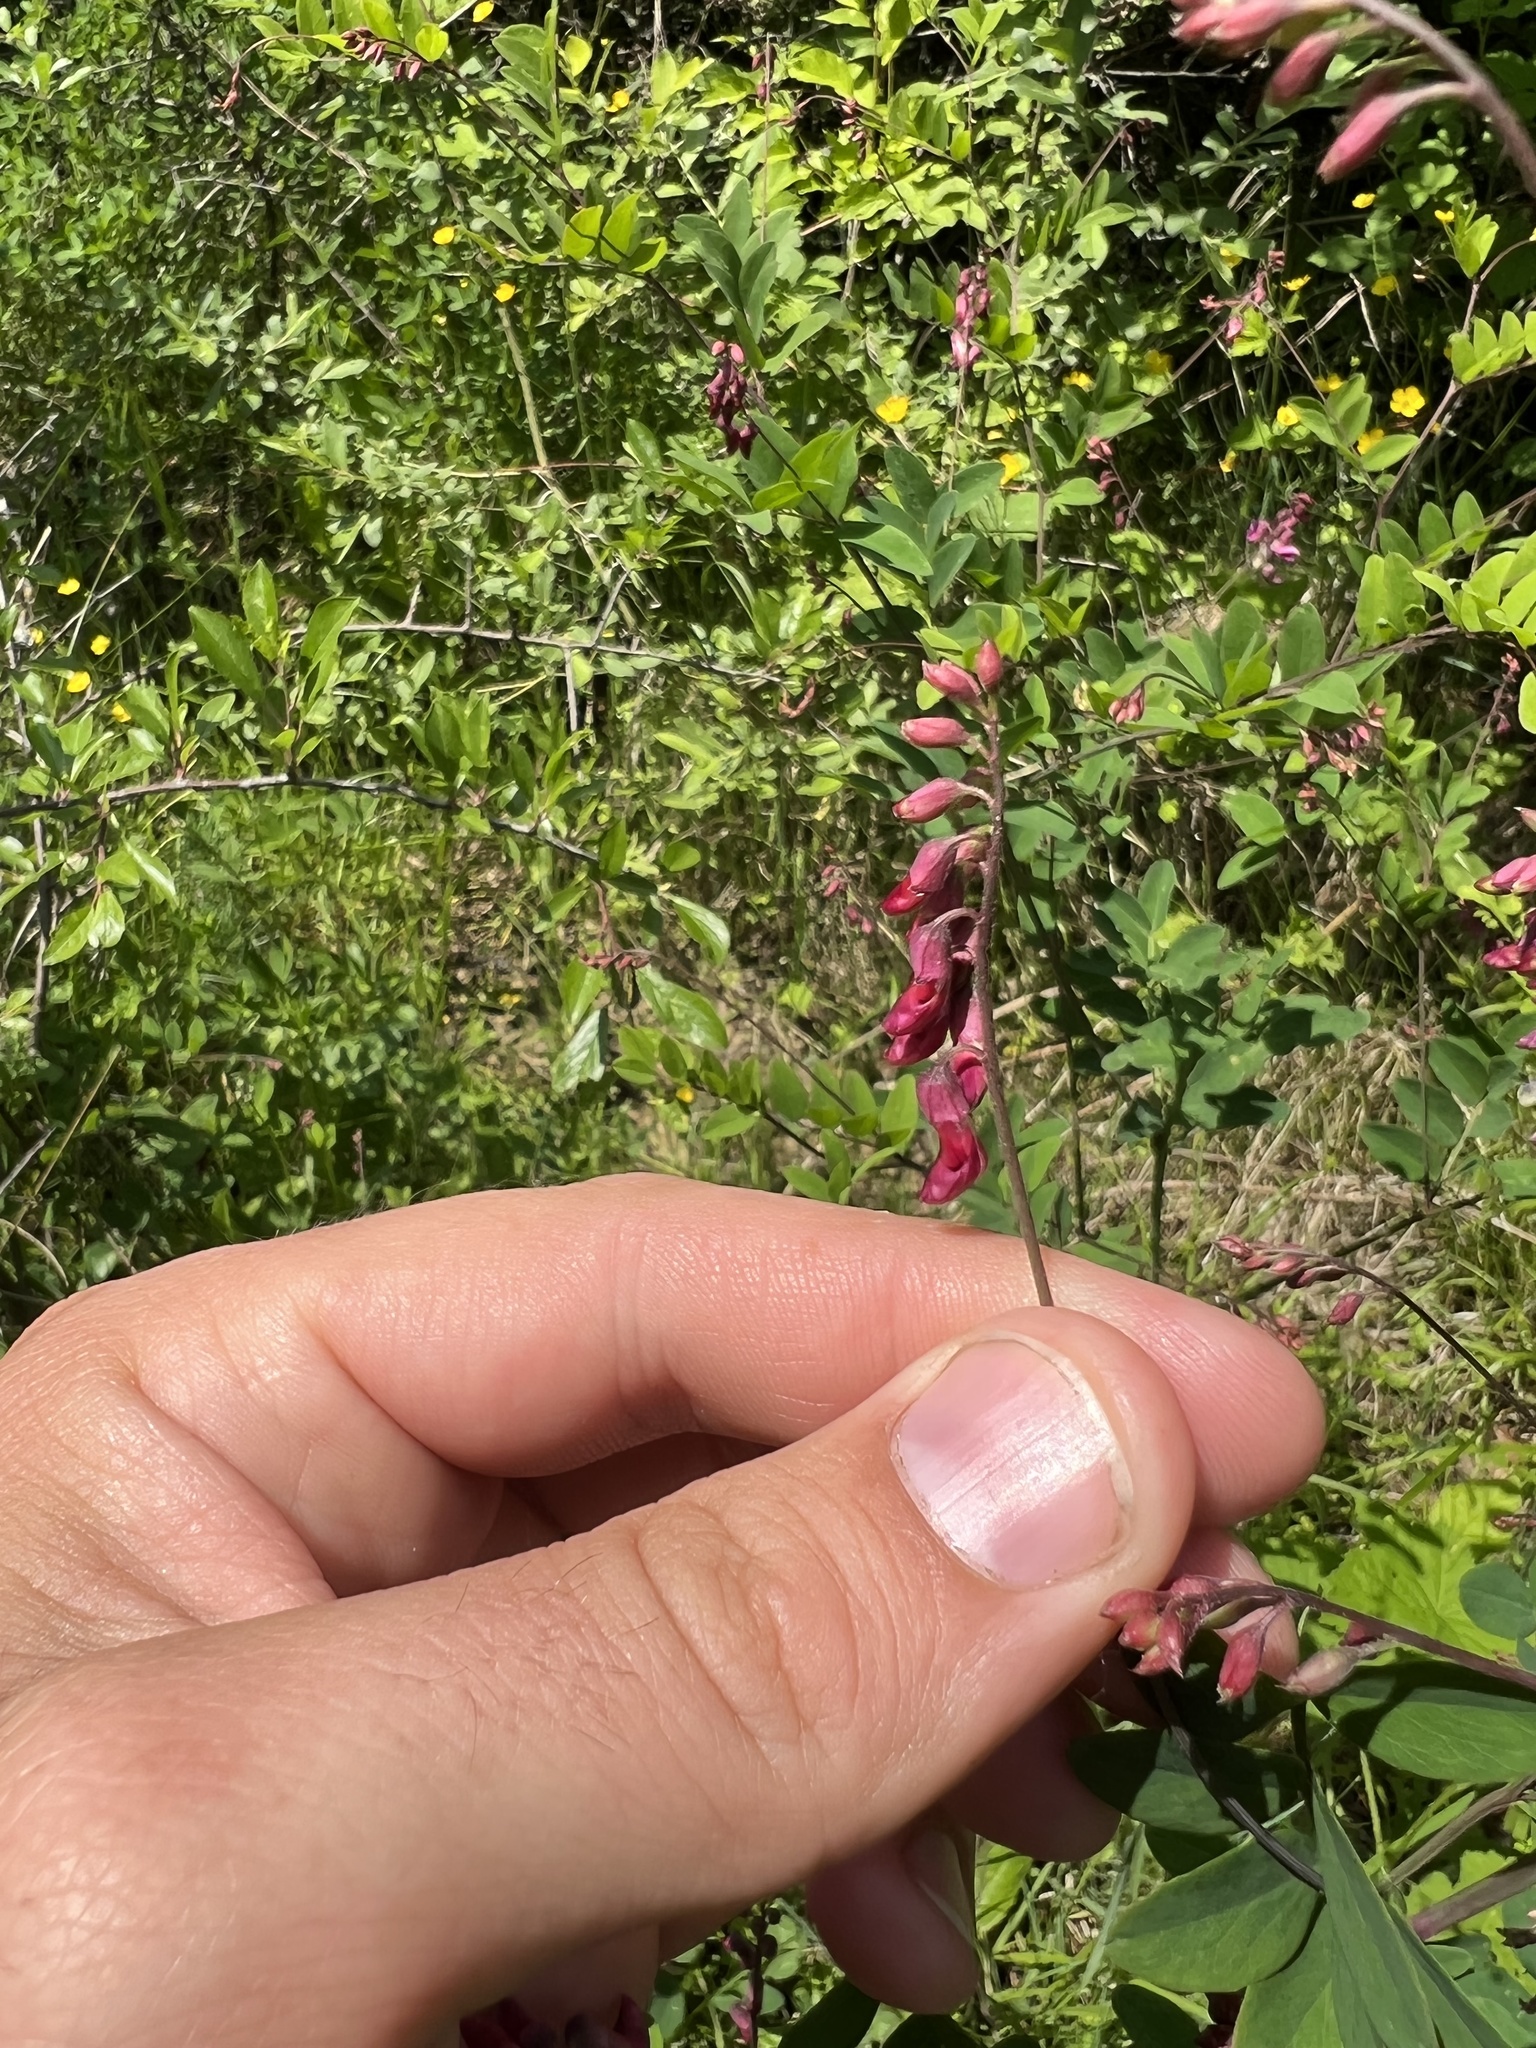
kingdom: Plantae
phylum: Tracheophyta
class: Magnoliopsida
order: Fabales
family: Fabaceae
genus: Lathyrus
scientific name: Lathyrus niger
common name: Black pea
